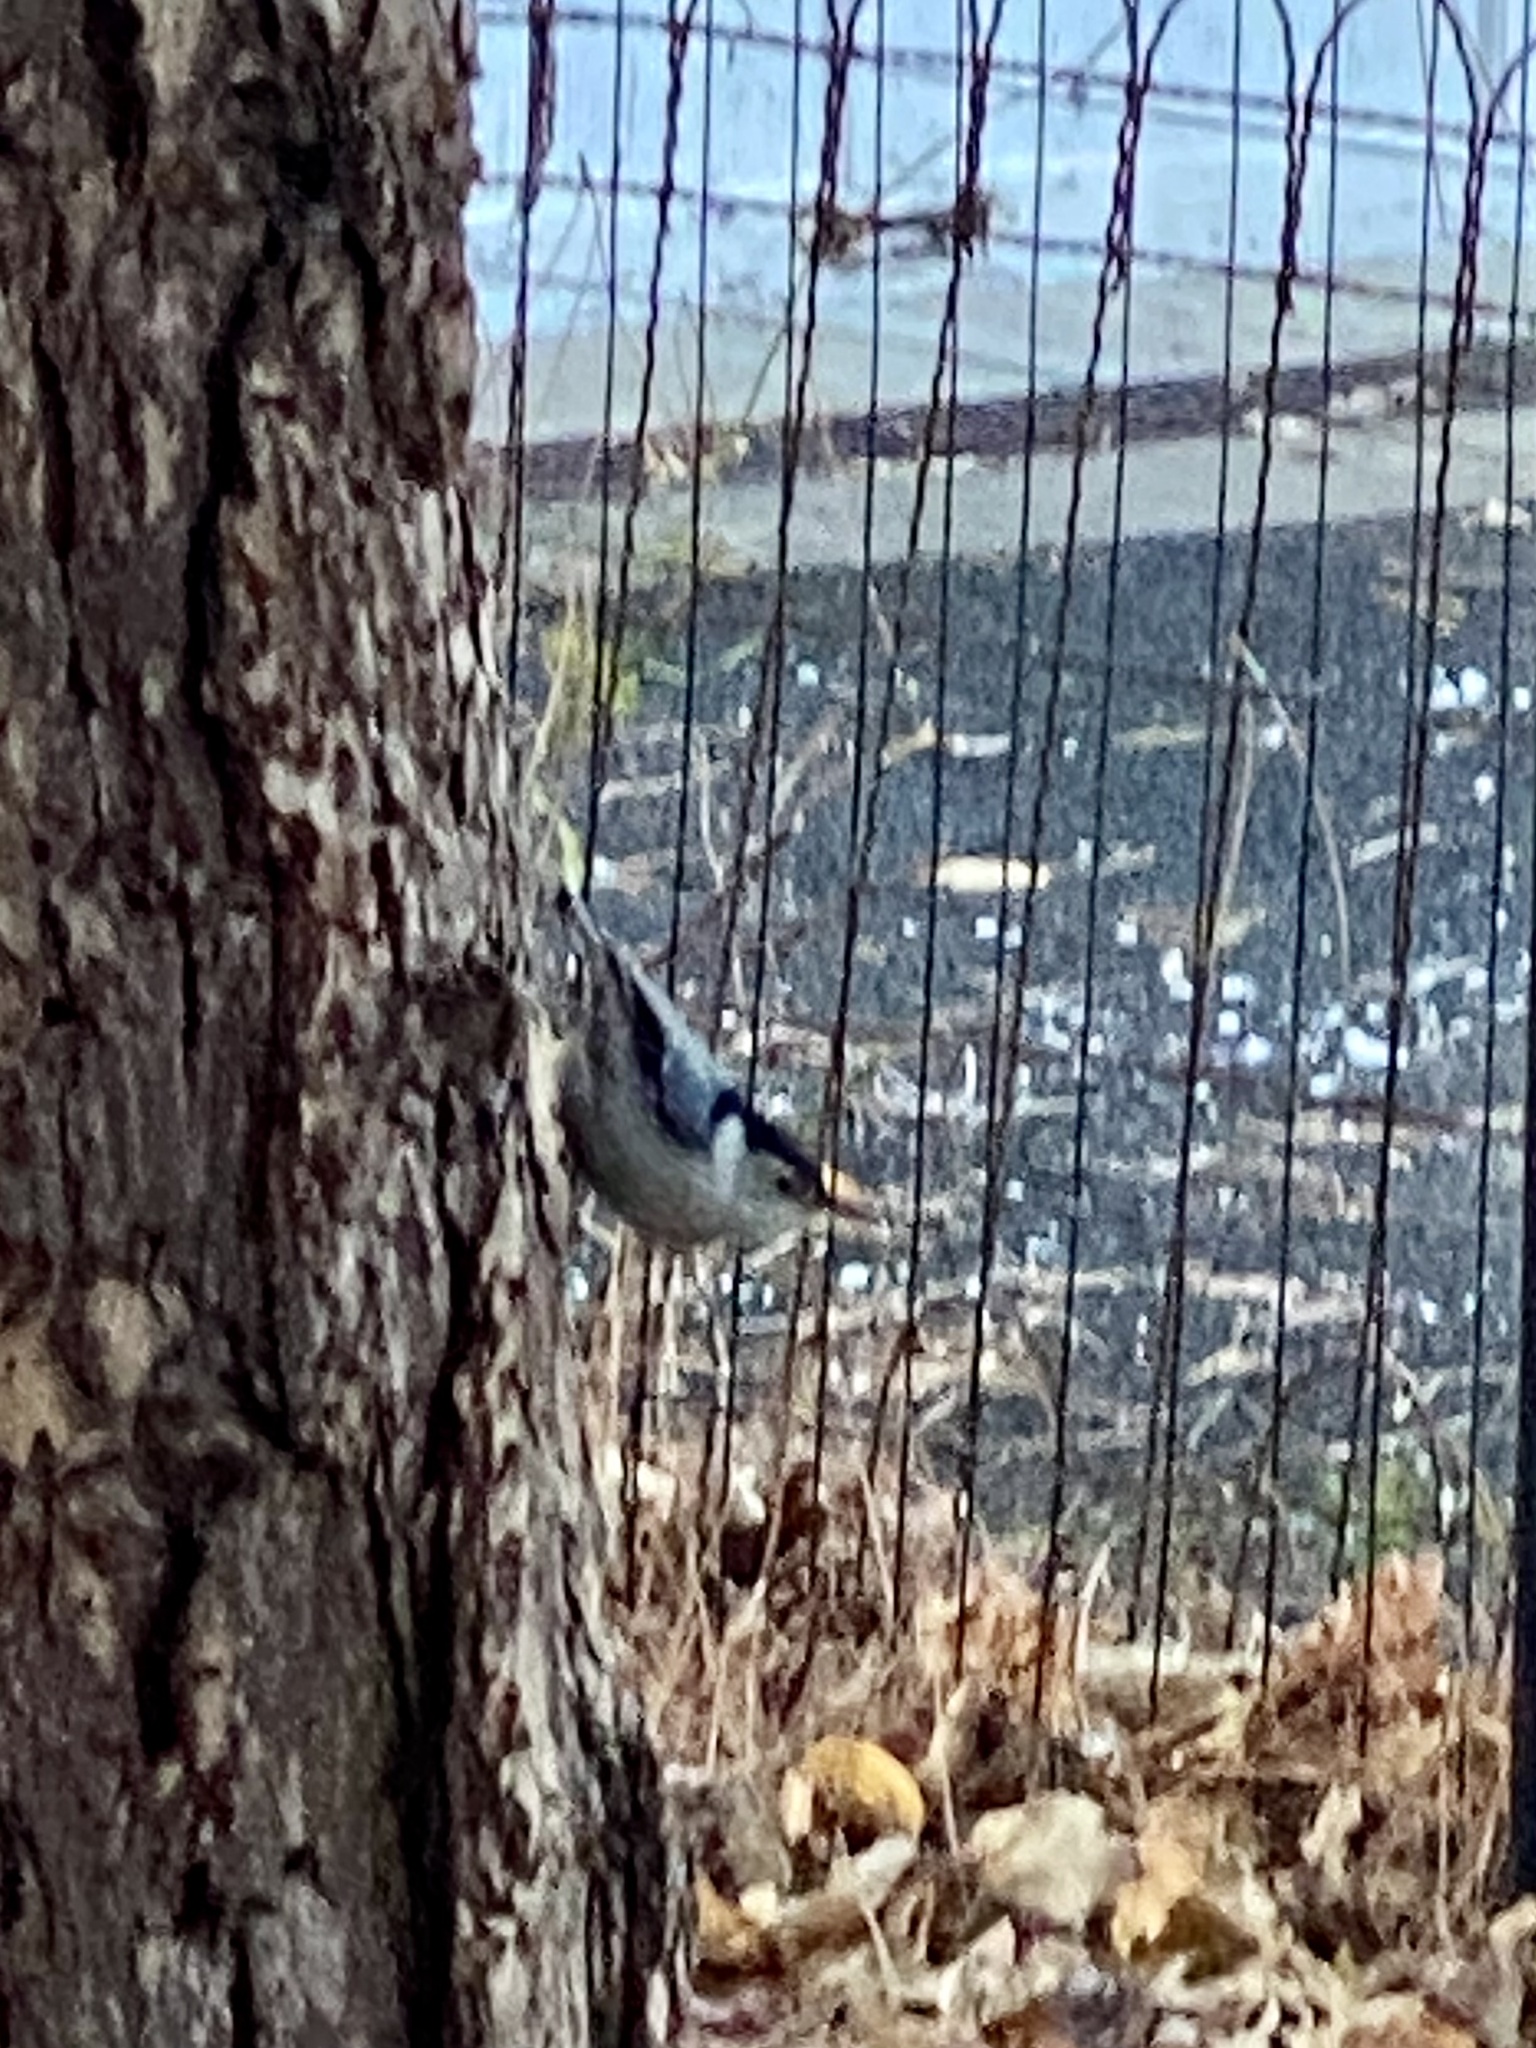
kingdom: Animalia
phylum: Chordata
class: Aves
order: Passeriformes
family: Sittidae
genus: Sitta
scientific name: Sitta carolinensis
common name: White-breasted nuthatch
